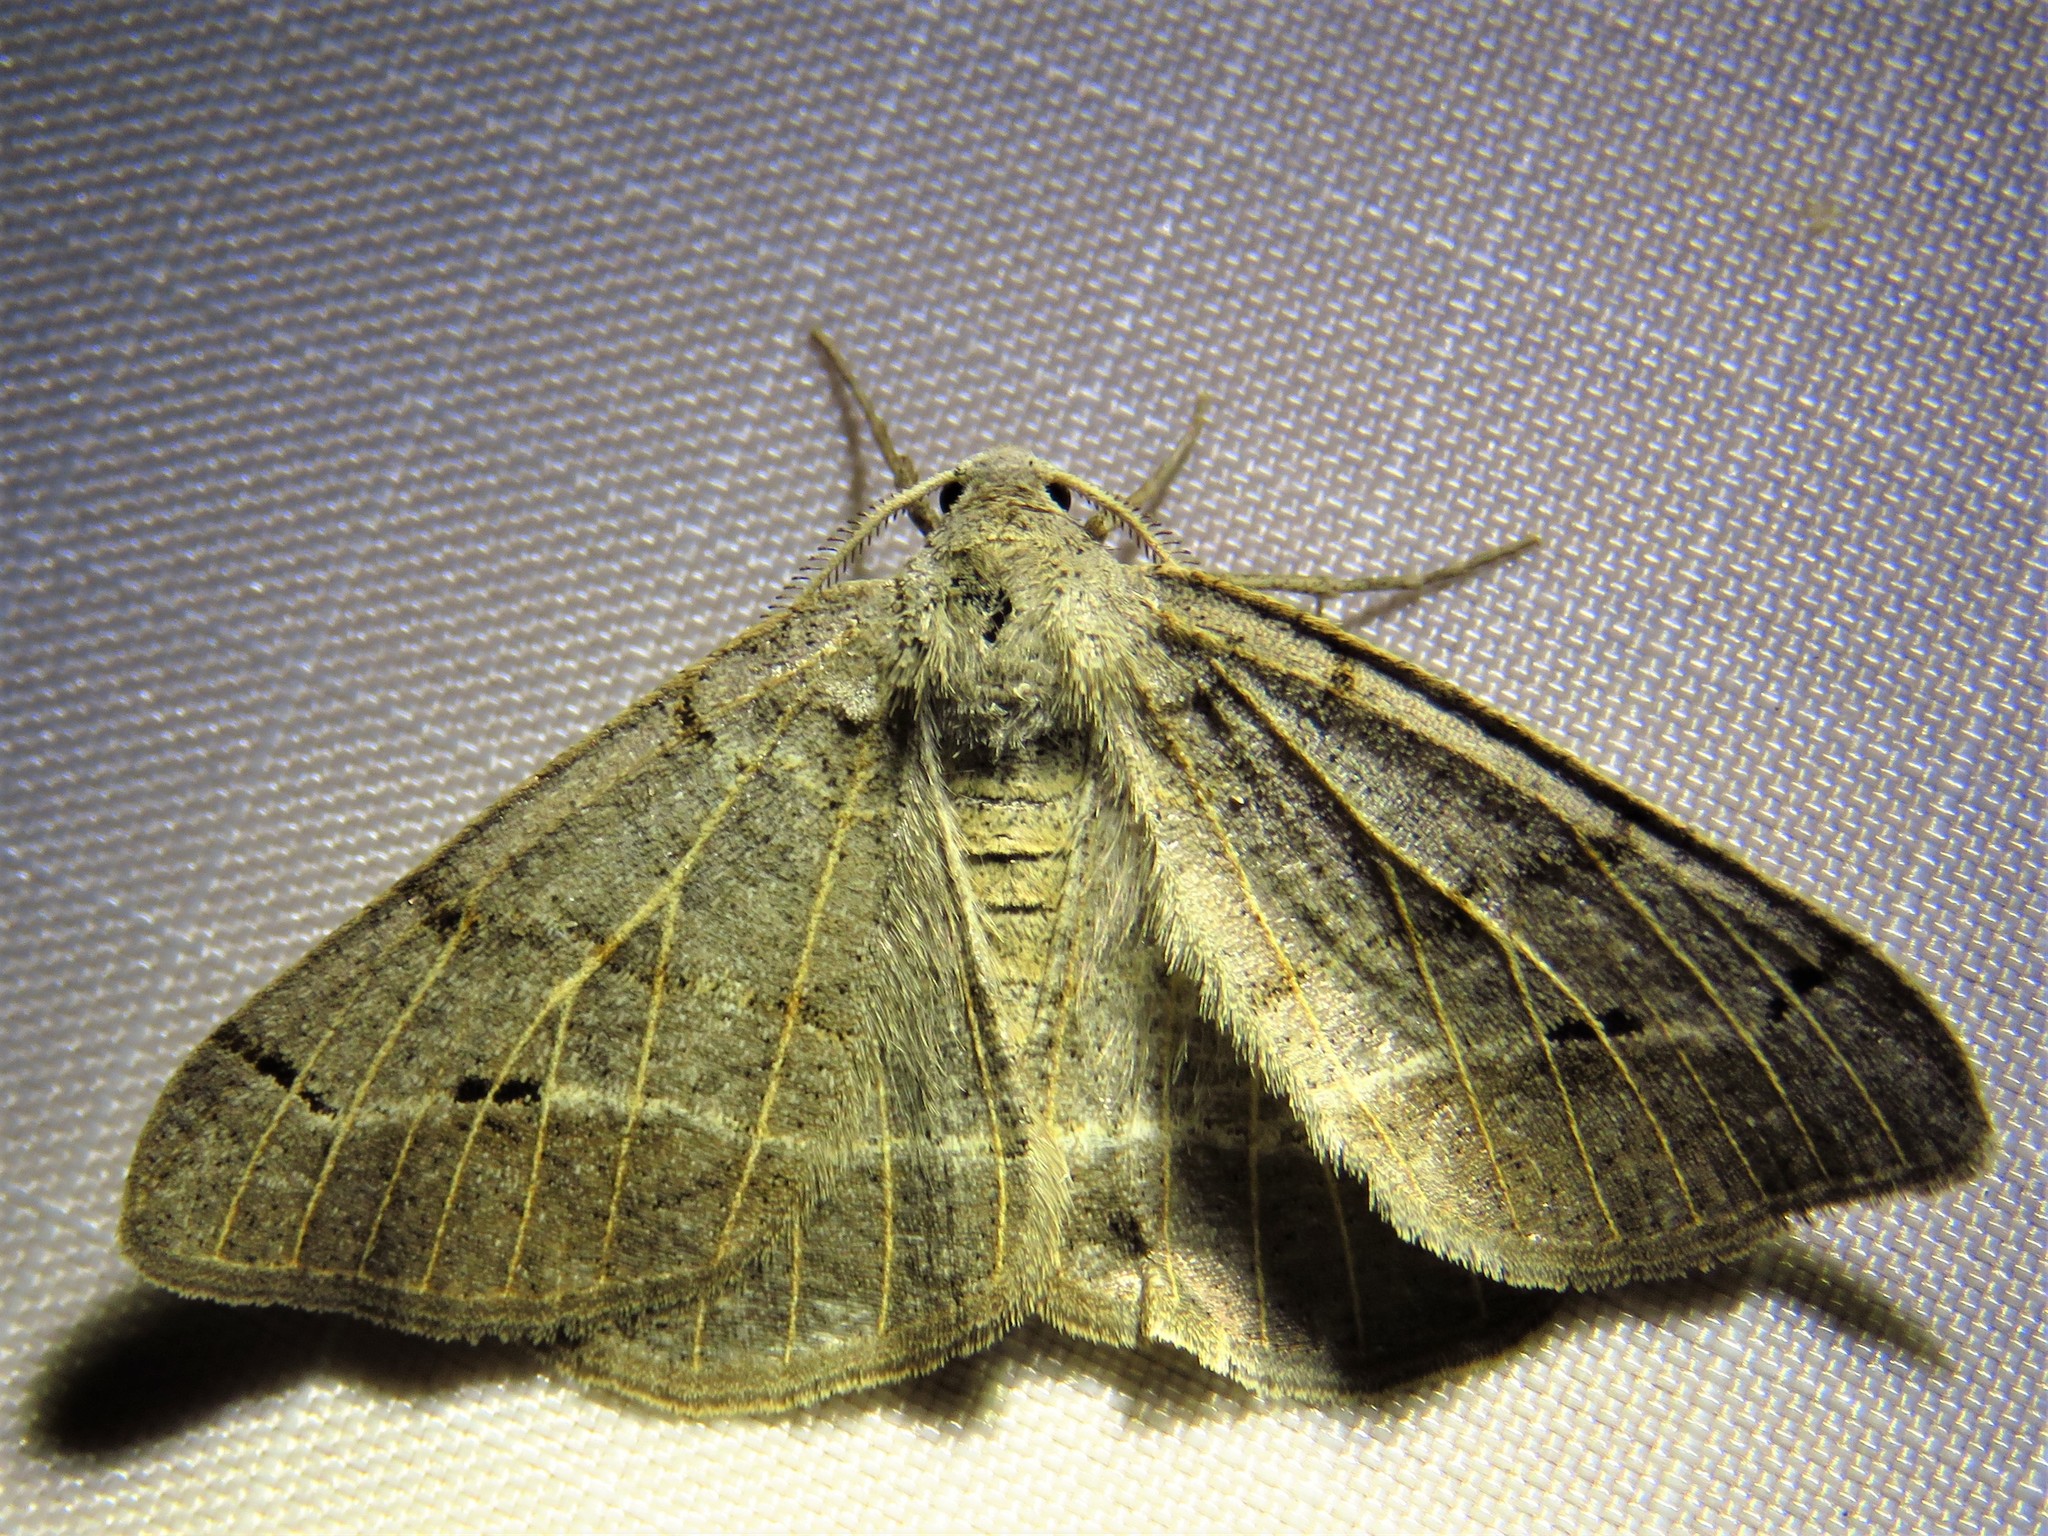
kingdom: Animalia
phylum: Arthropoda
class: Insecta
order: Lepidoptera
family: Geometridae
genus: Isturgia
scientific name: Isturgia dislocaria
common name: Pale-viened enconista
